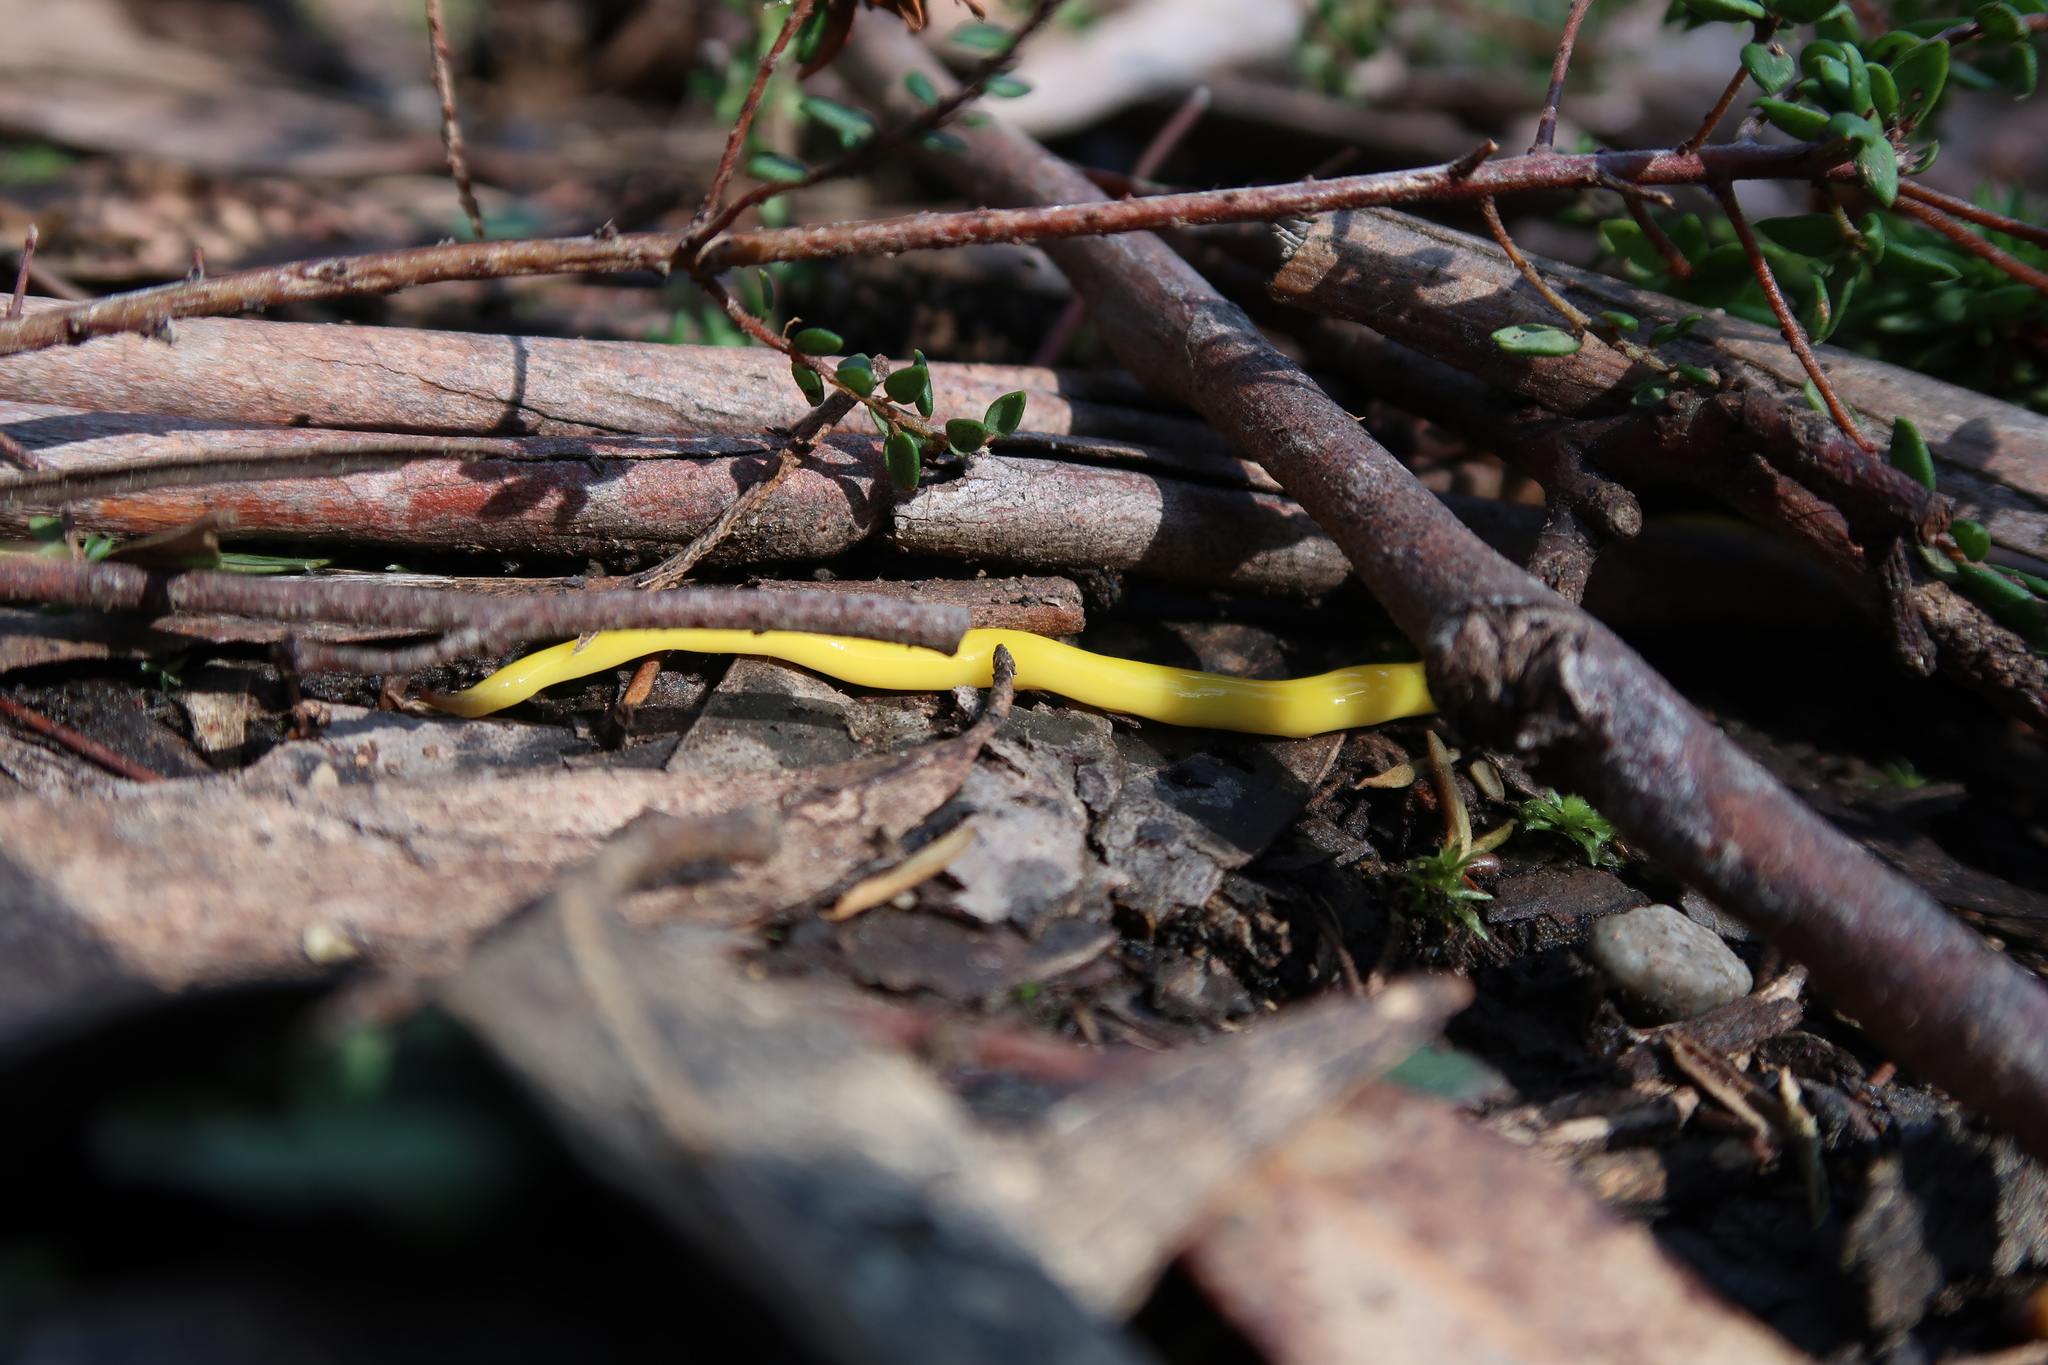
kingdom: Animalia
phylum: Platyhelminthes
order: Tricladida
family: Geoplanidae
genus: Fletchamia
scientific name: Fletchamia sugdeni
